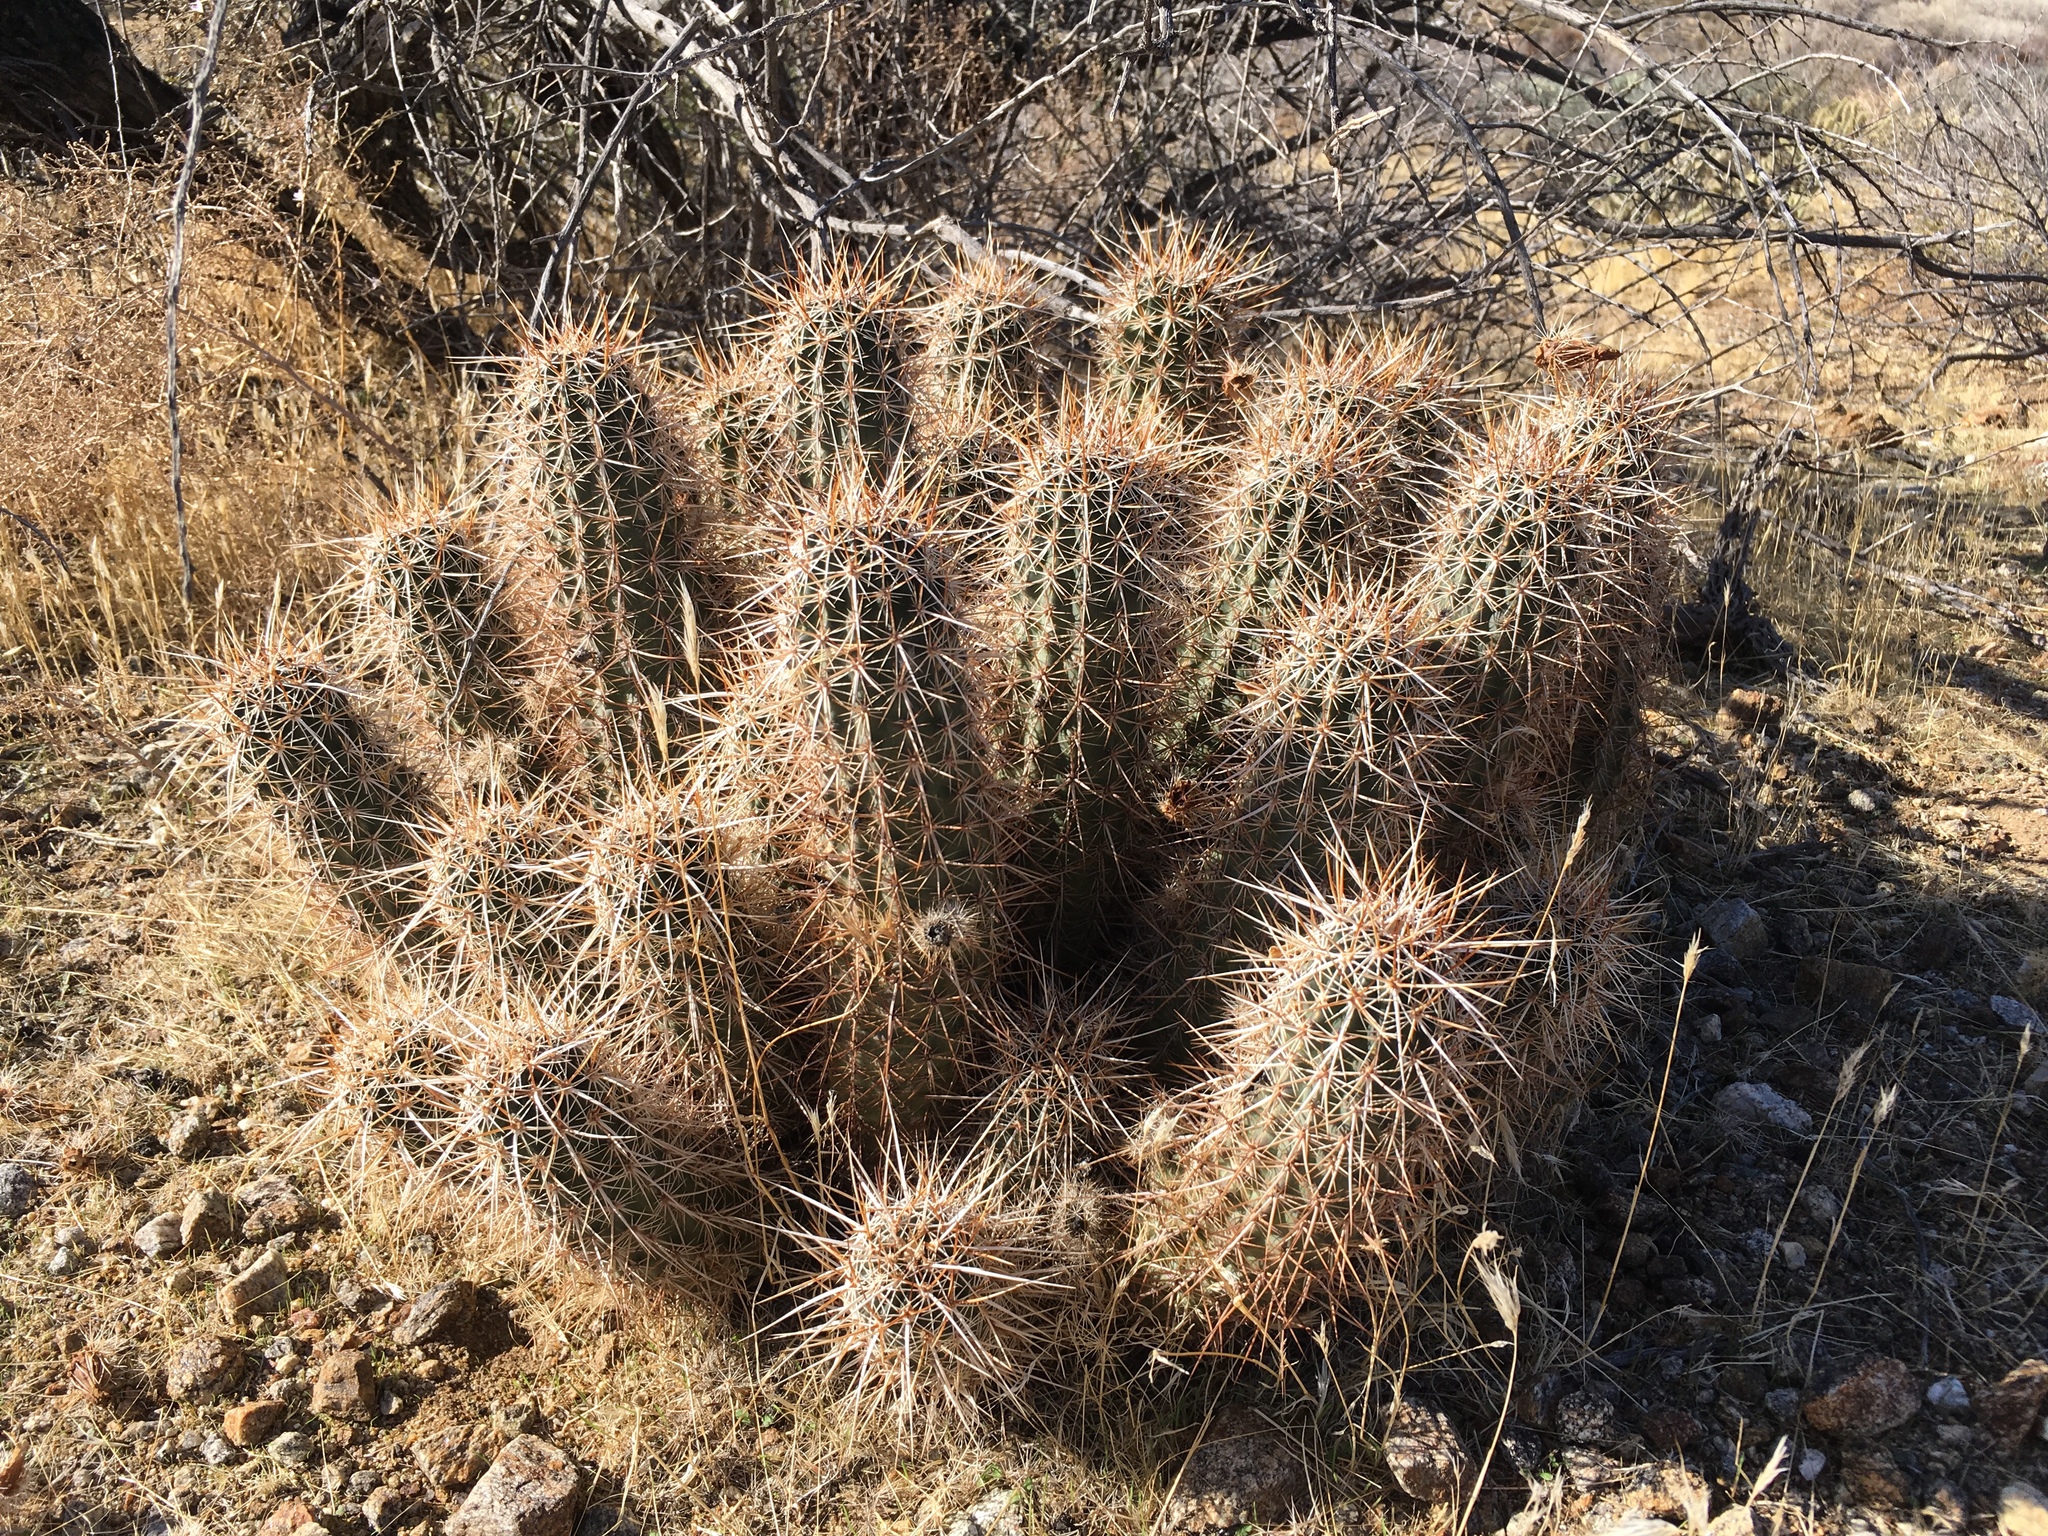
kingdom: Plantae
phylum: Tracheophyta
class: Magnoliopsida
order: Caryophyllales
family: Cactaceae
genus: Echinocereus
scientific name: Echinocereus engelmannii
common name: Engelmann's hedgehog cactus
